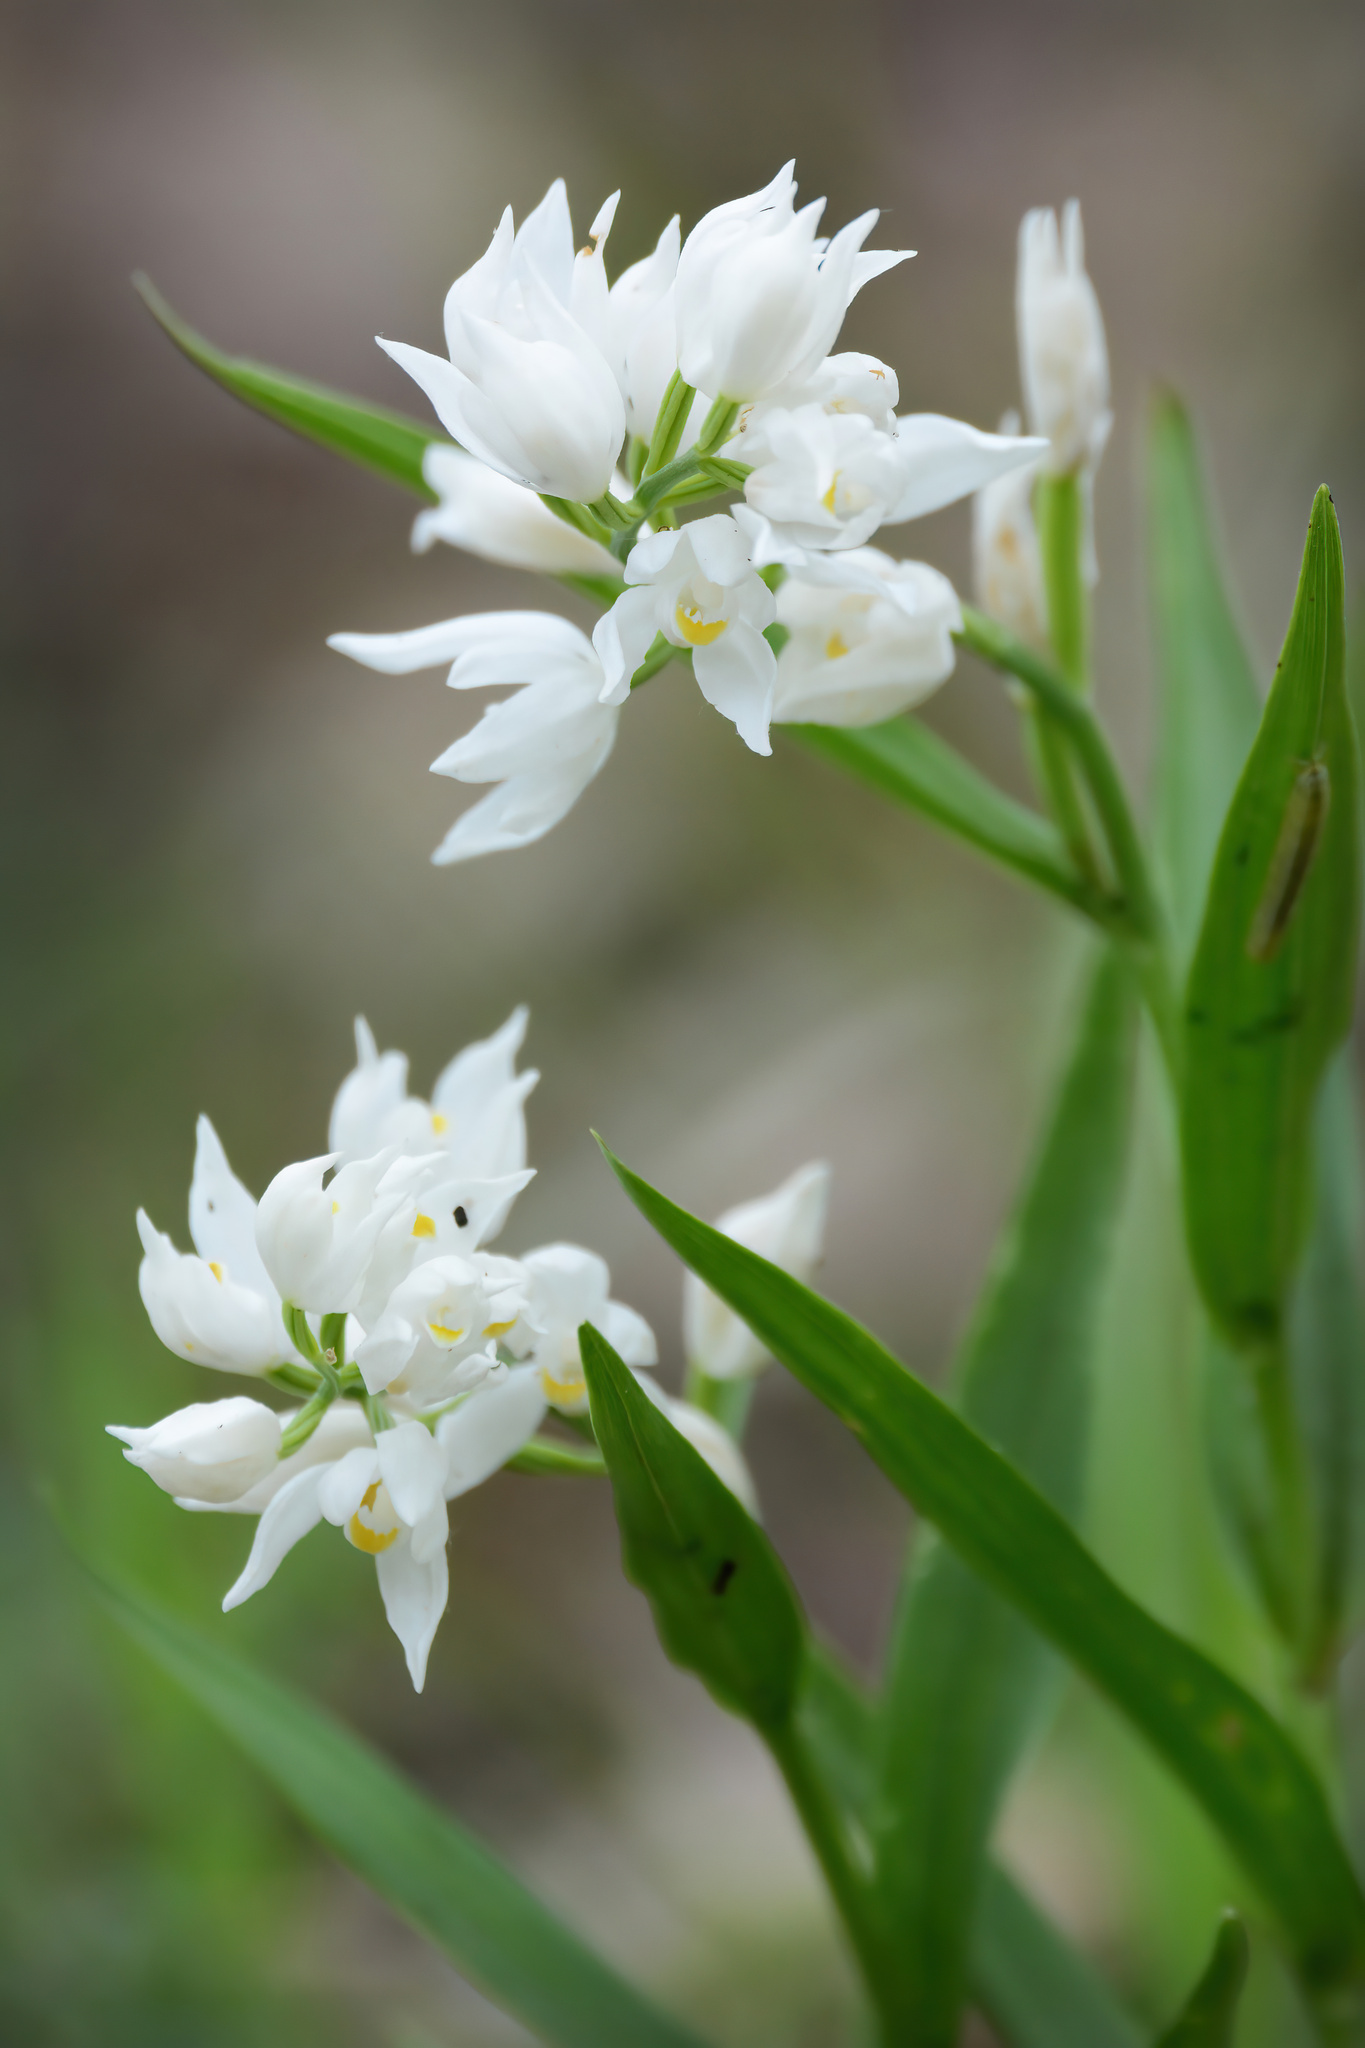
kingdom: Plantae
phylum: Tracheophyta
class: Liliopsida
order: Asparagales
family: Orchidaceae
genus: Cephalanthera
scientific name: Cephalanthera longifolia
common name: Narrow-leaved helleborine
